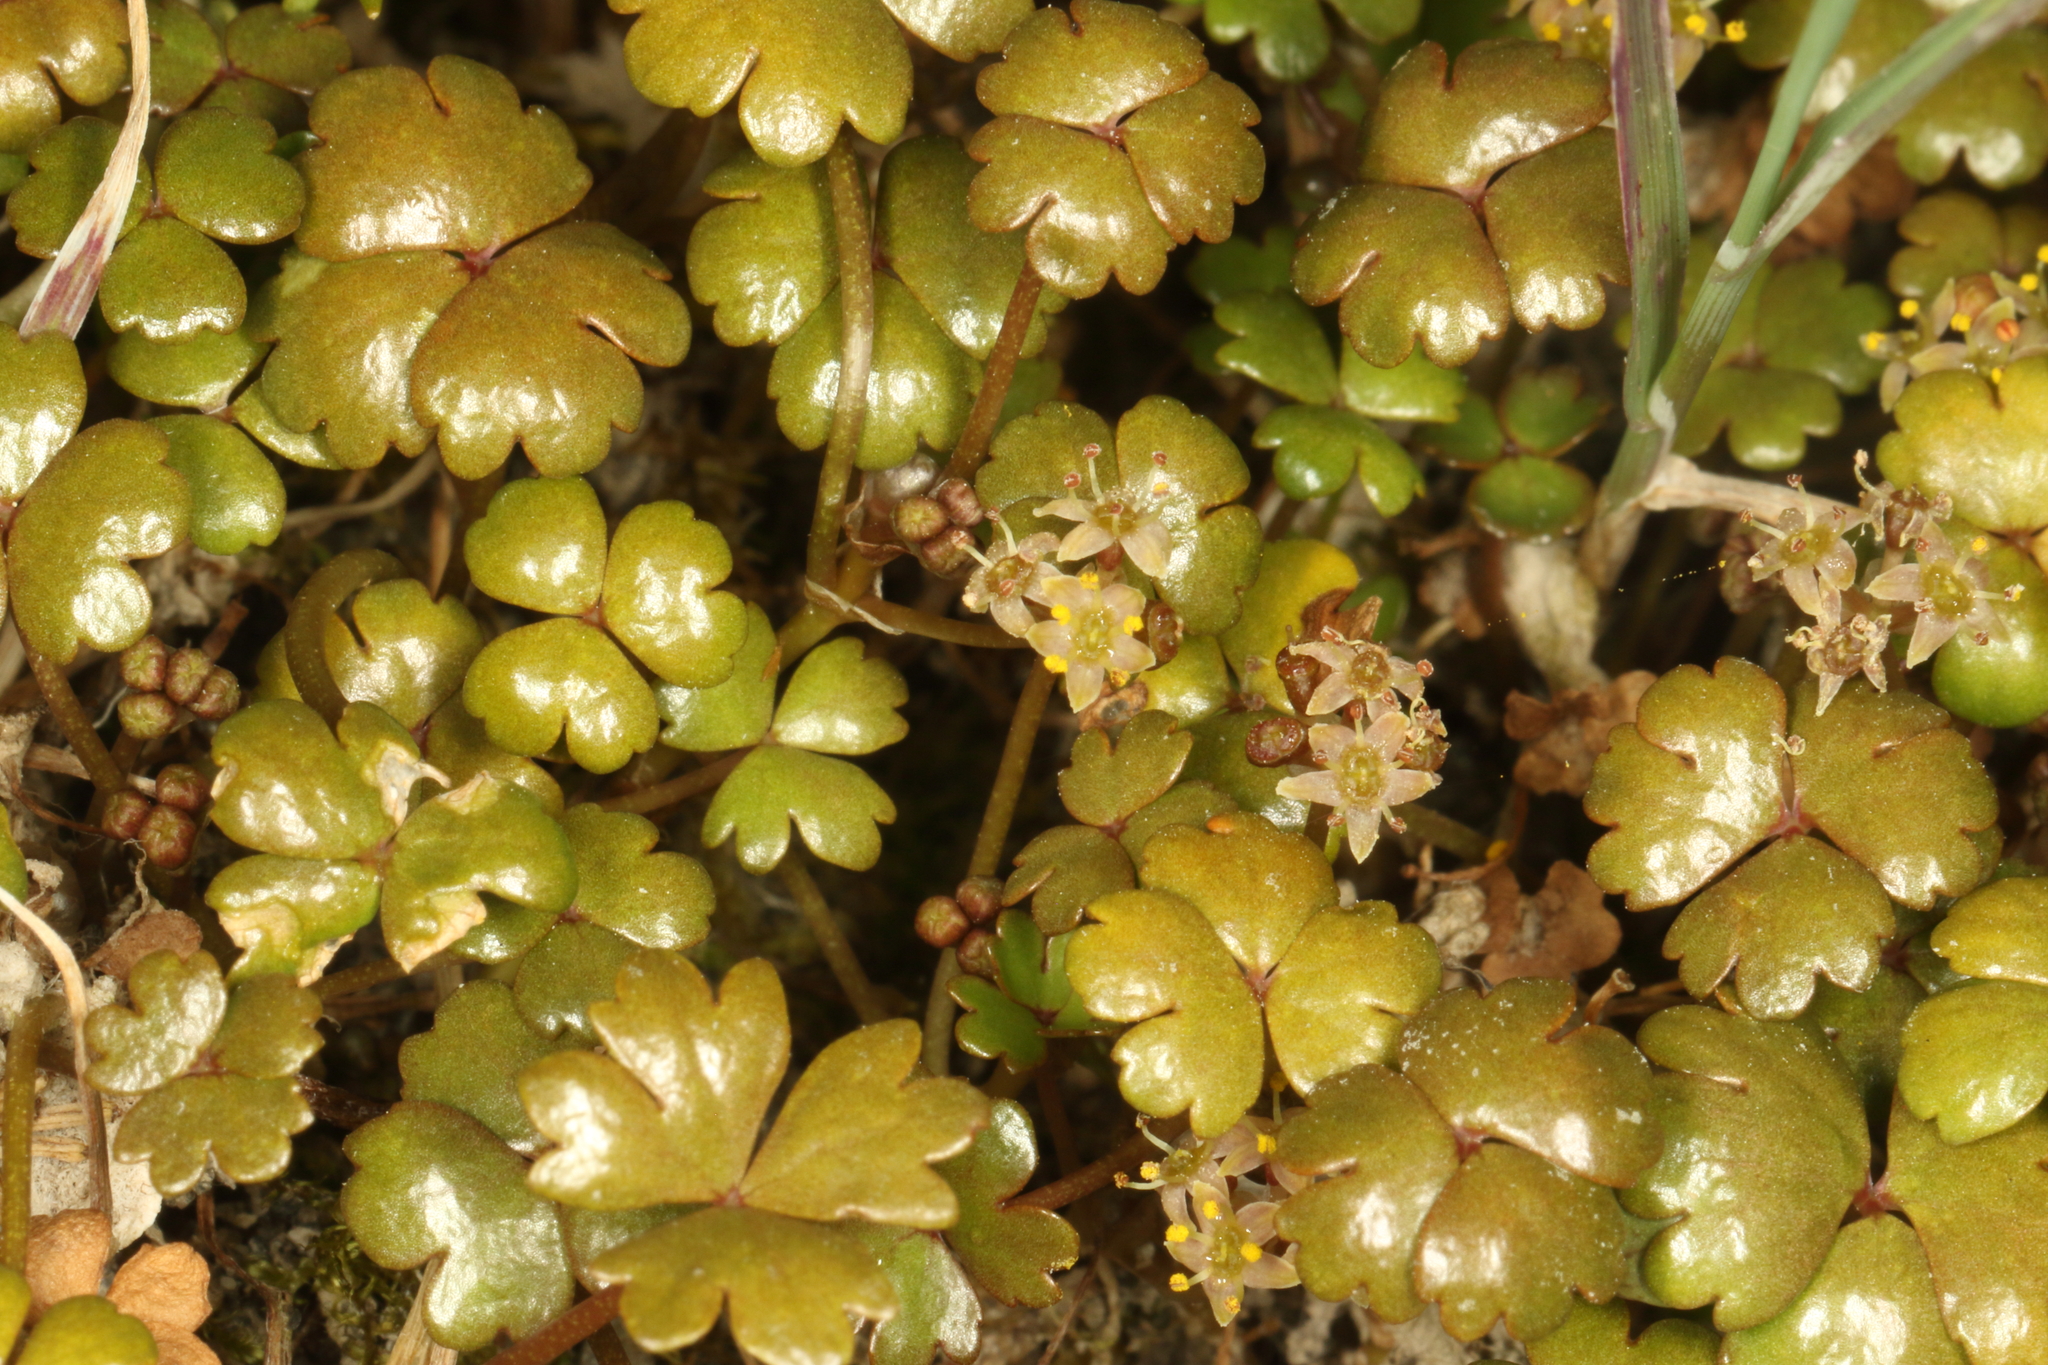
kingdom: Plantae
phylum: Tracheophyta
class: Magnoliopsida
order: Apiales
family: Araliaceae
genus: Hydrocotyle
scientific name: Hydrocotyle sulcata
